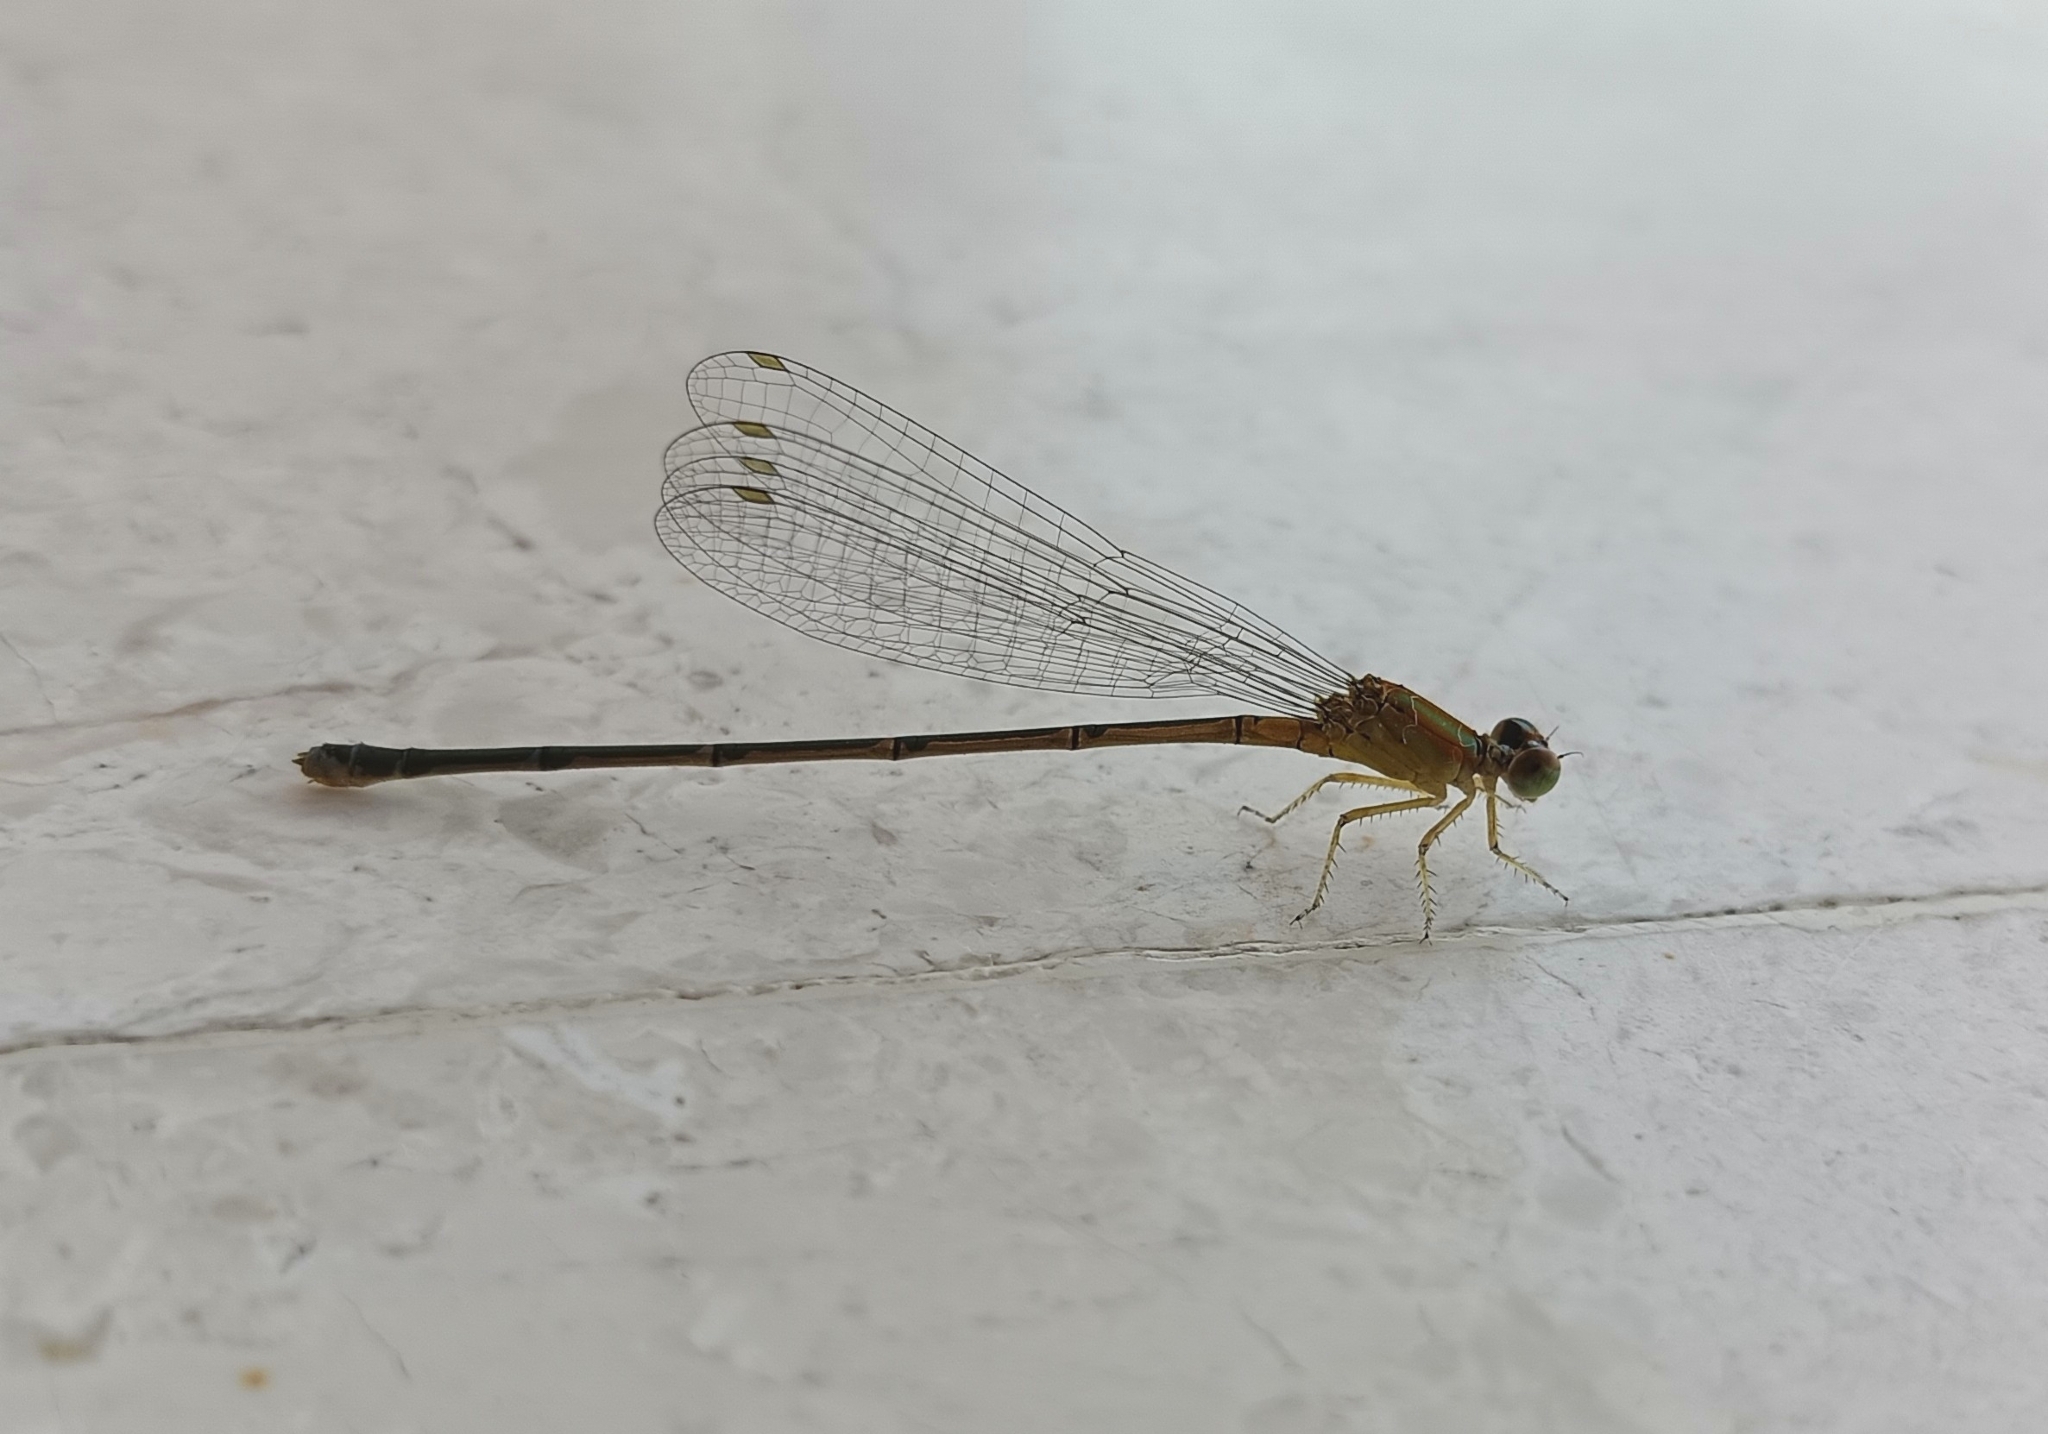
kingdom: Animalia
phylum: Arthropoda
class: Insecta
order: Odonata
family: Coenagrionidae
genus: Pseudagrion
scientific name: Pseudagrion microcephalum
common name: Blue riverdamsel
